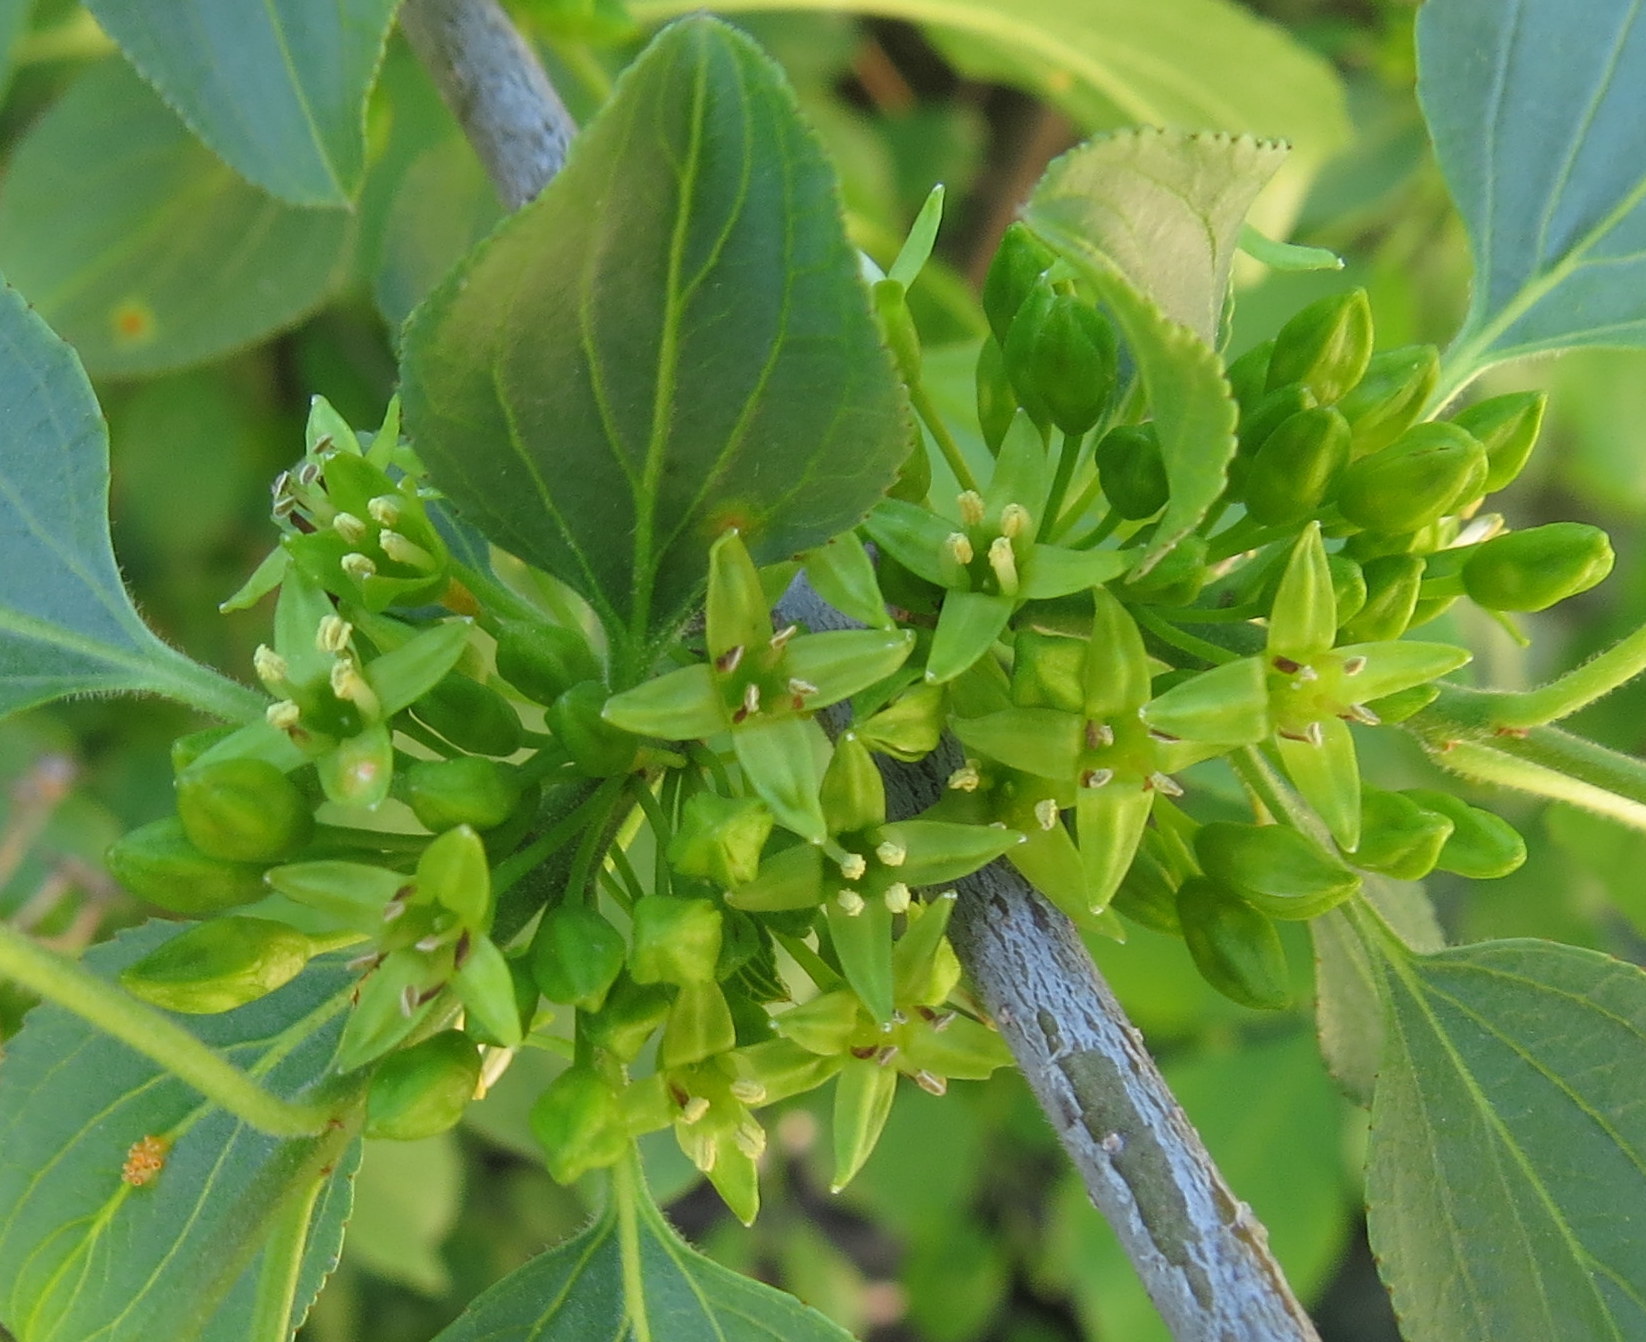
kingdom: Plantae
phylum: Tracheophyta
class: Magnoliopsida
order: Rosales
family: Rhamnaceae
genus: Rhamnus
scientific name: Rhamnus cathartica
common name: Common buckthorn
